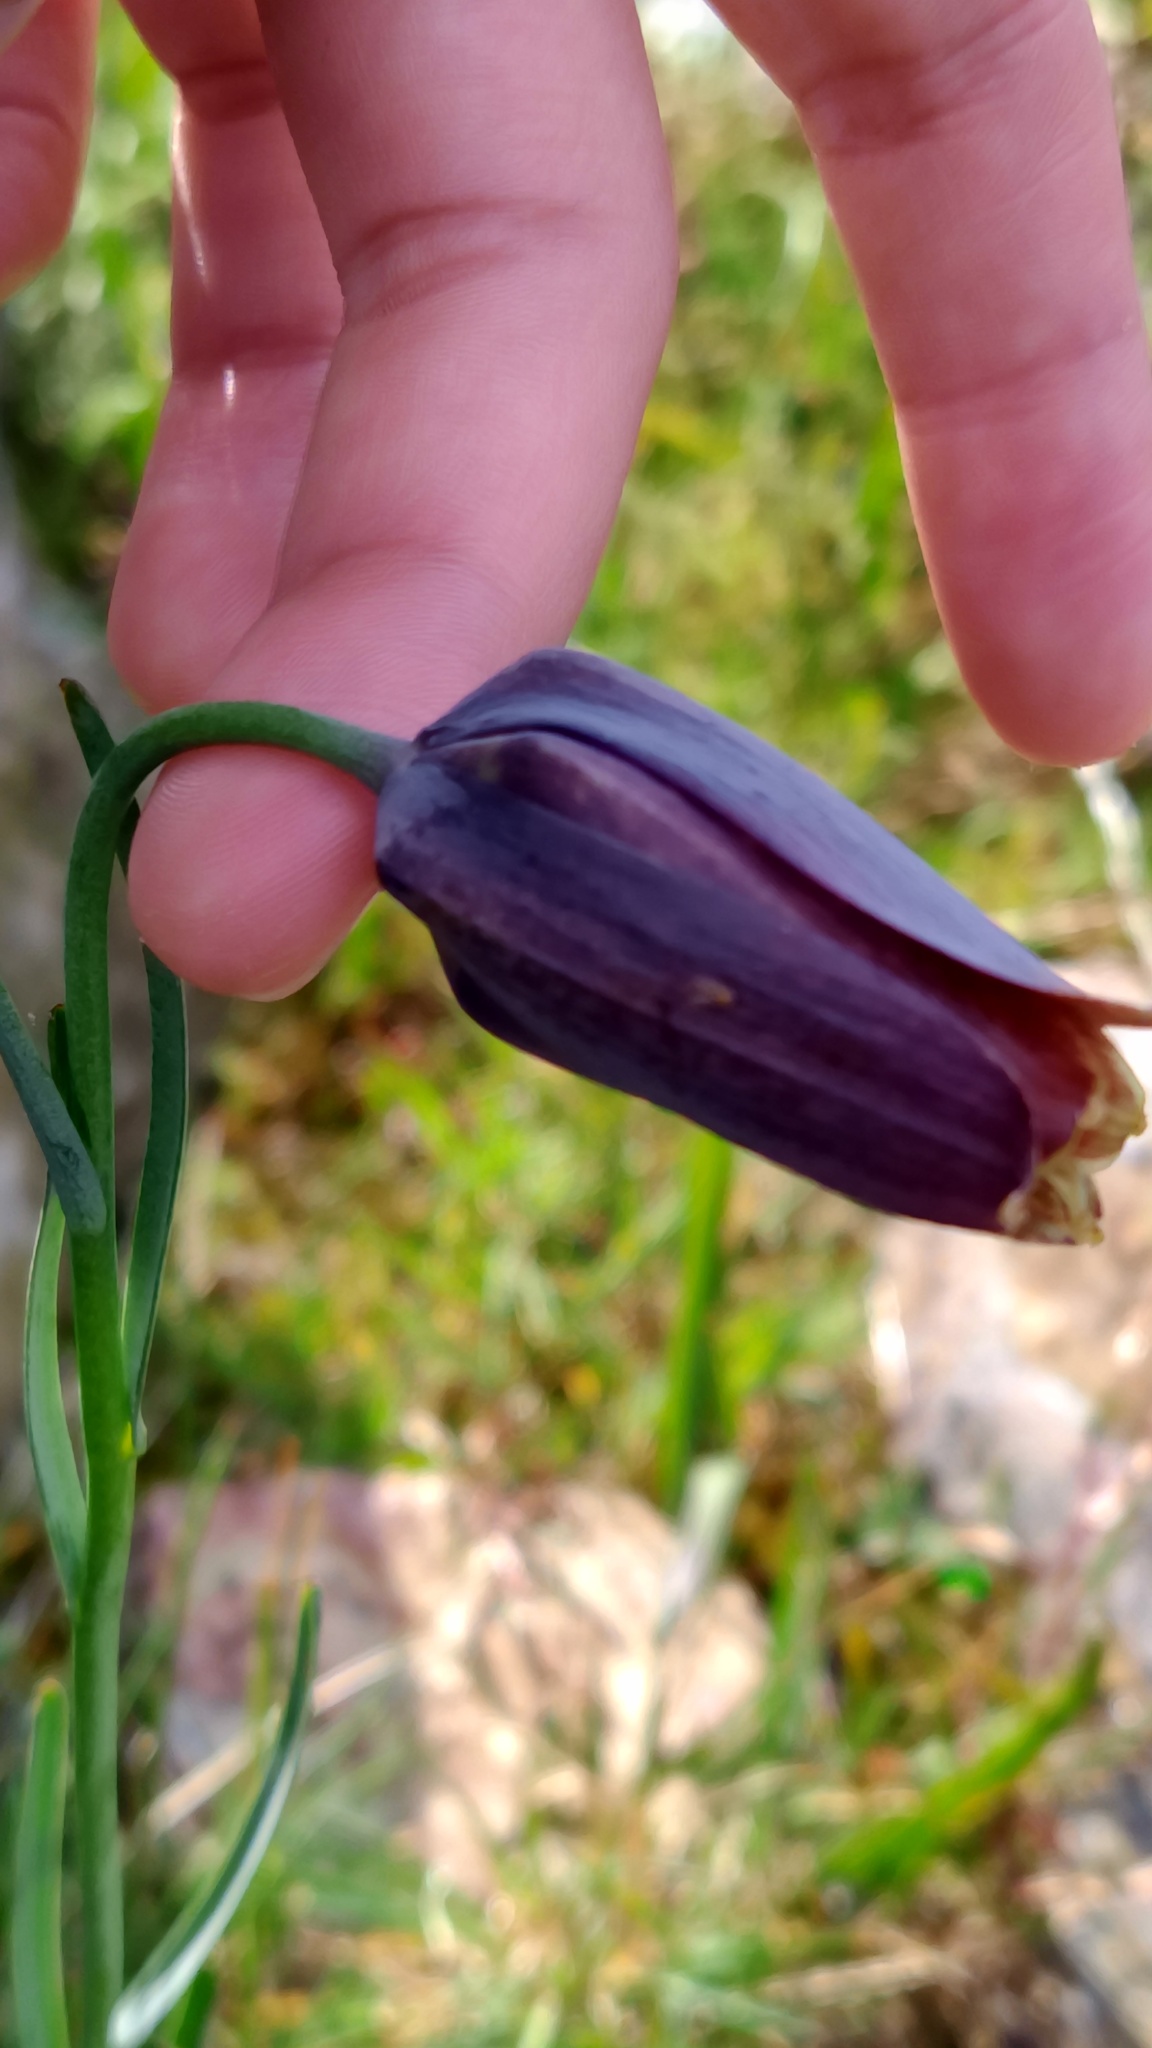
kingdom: Plantae
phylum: Tracheophyta
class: Liliopsida
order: Liliales
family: Liliaceae
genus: Fritillaria
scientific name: Fritillaria pyrenaica
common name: Pyrenean snake's-head
